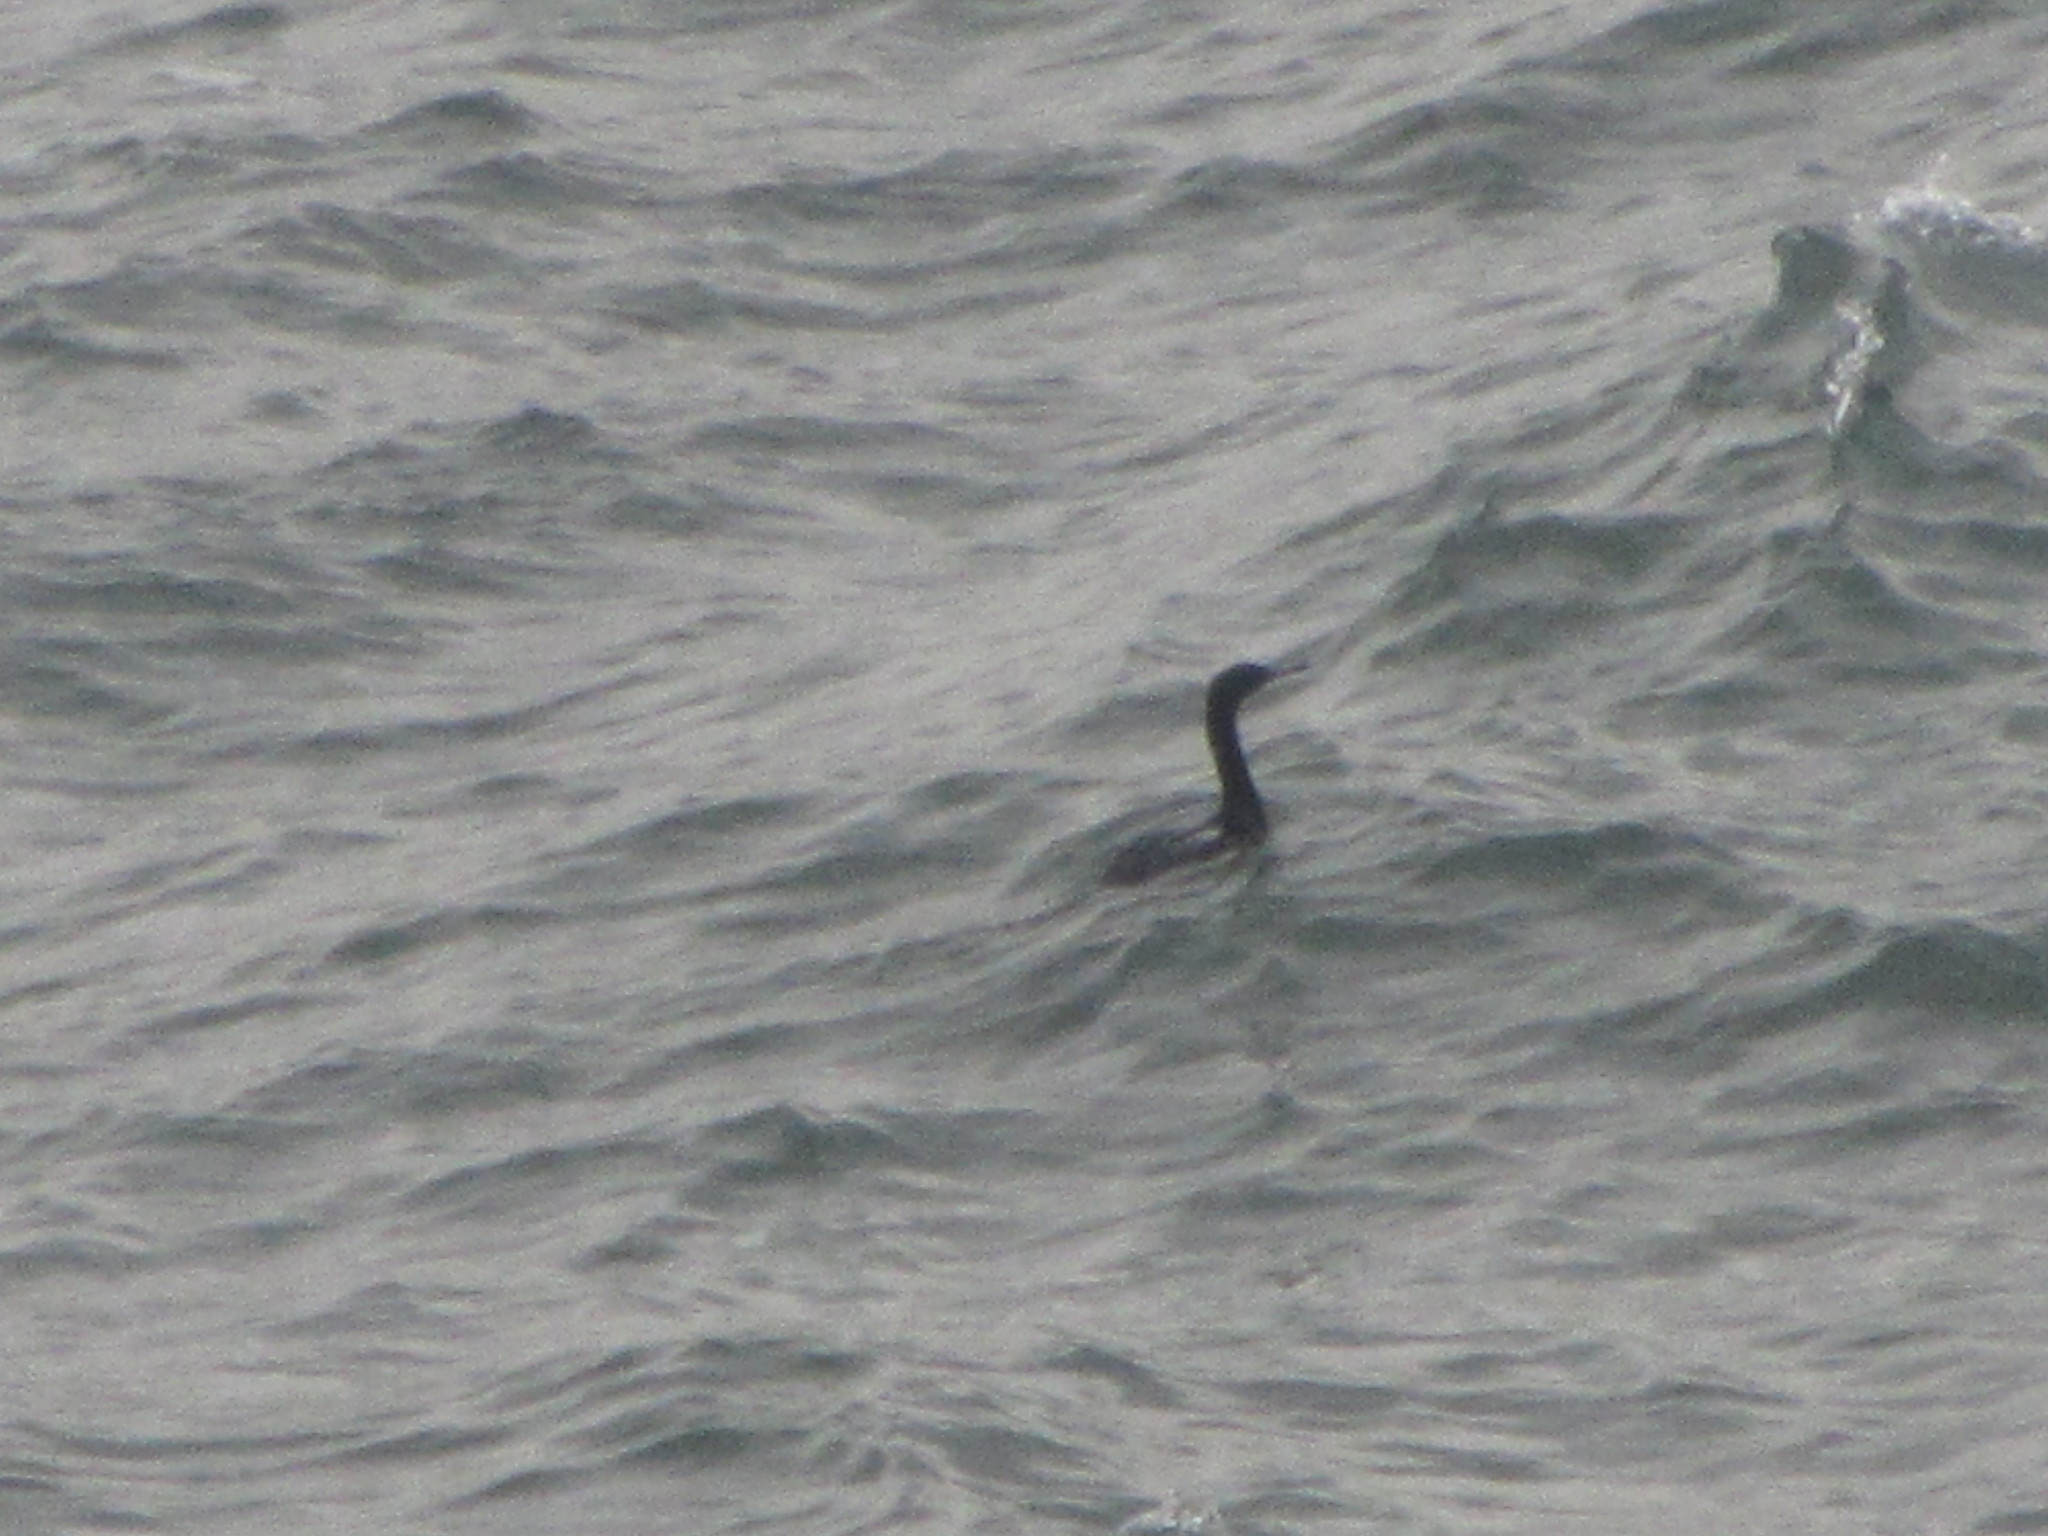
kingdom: Animalia
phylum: Chordata
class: Aves
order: Suliformes
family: Phalacrocoracidae
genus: Phalacrocorax
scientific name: Phalacrocorax pelagicus
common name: Pelagic cormorant
